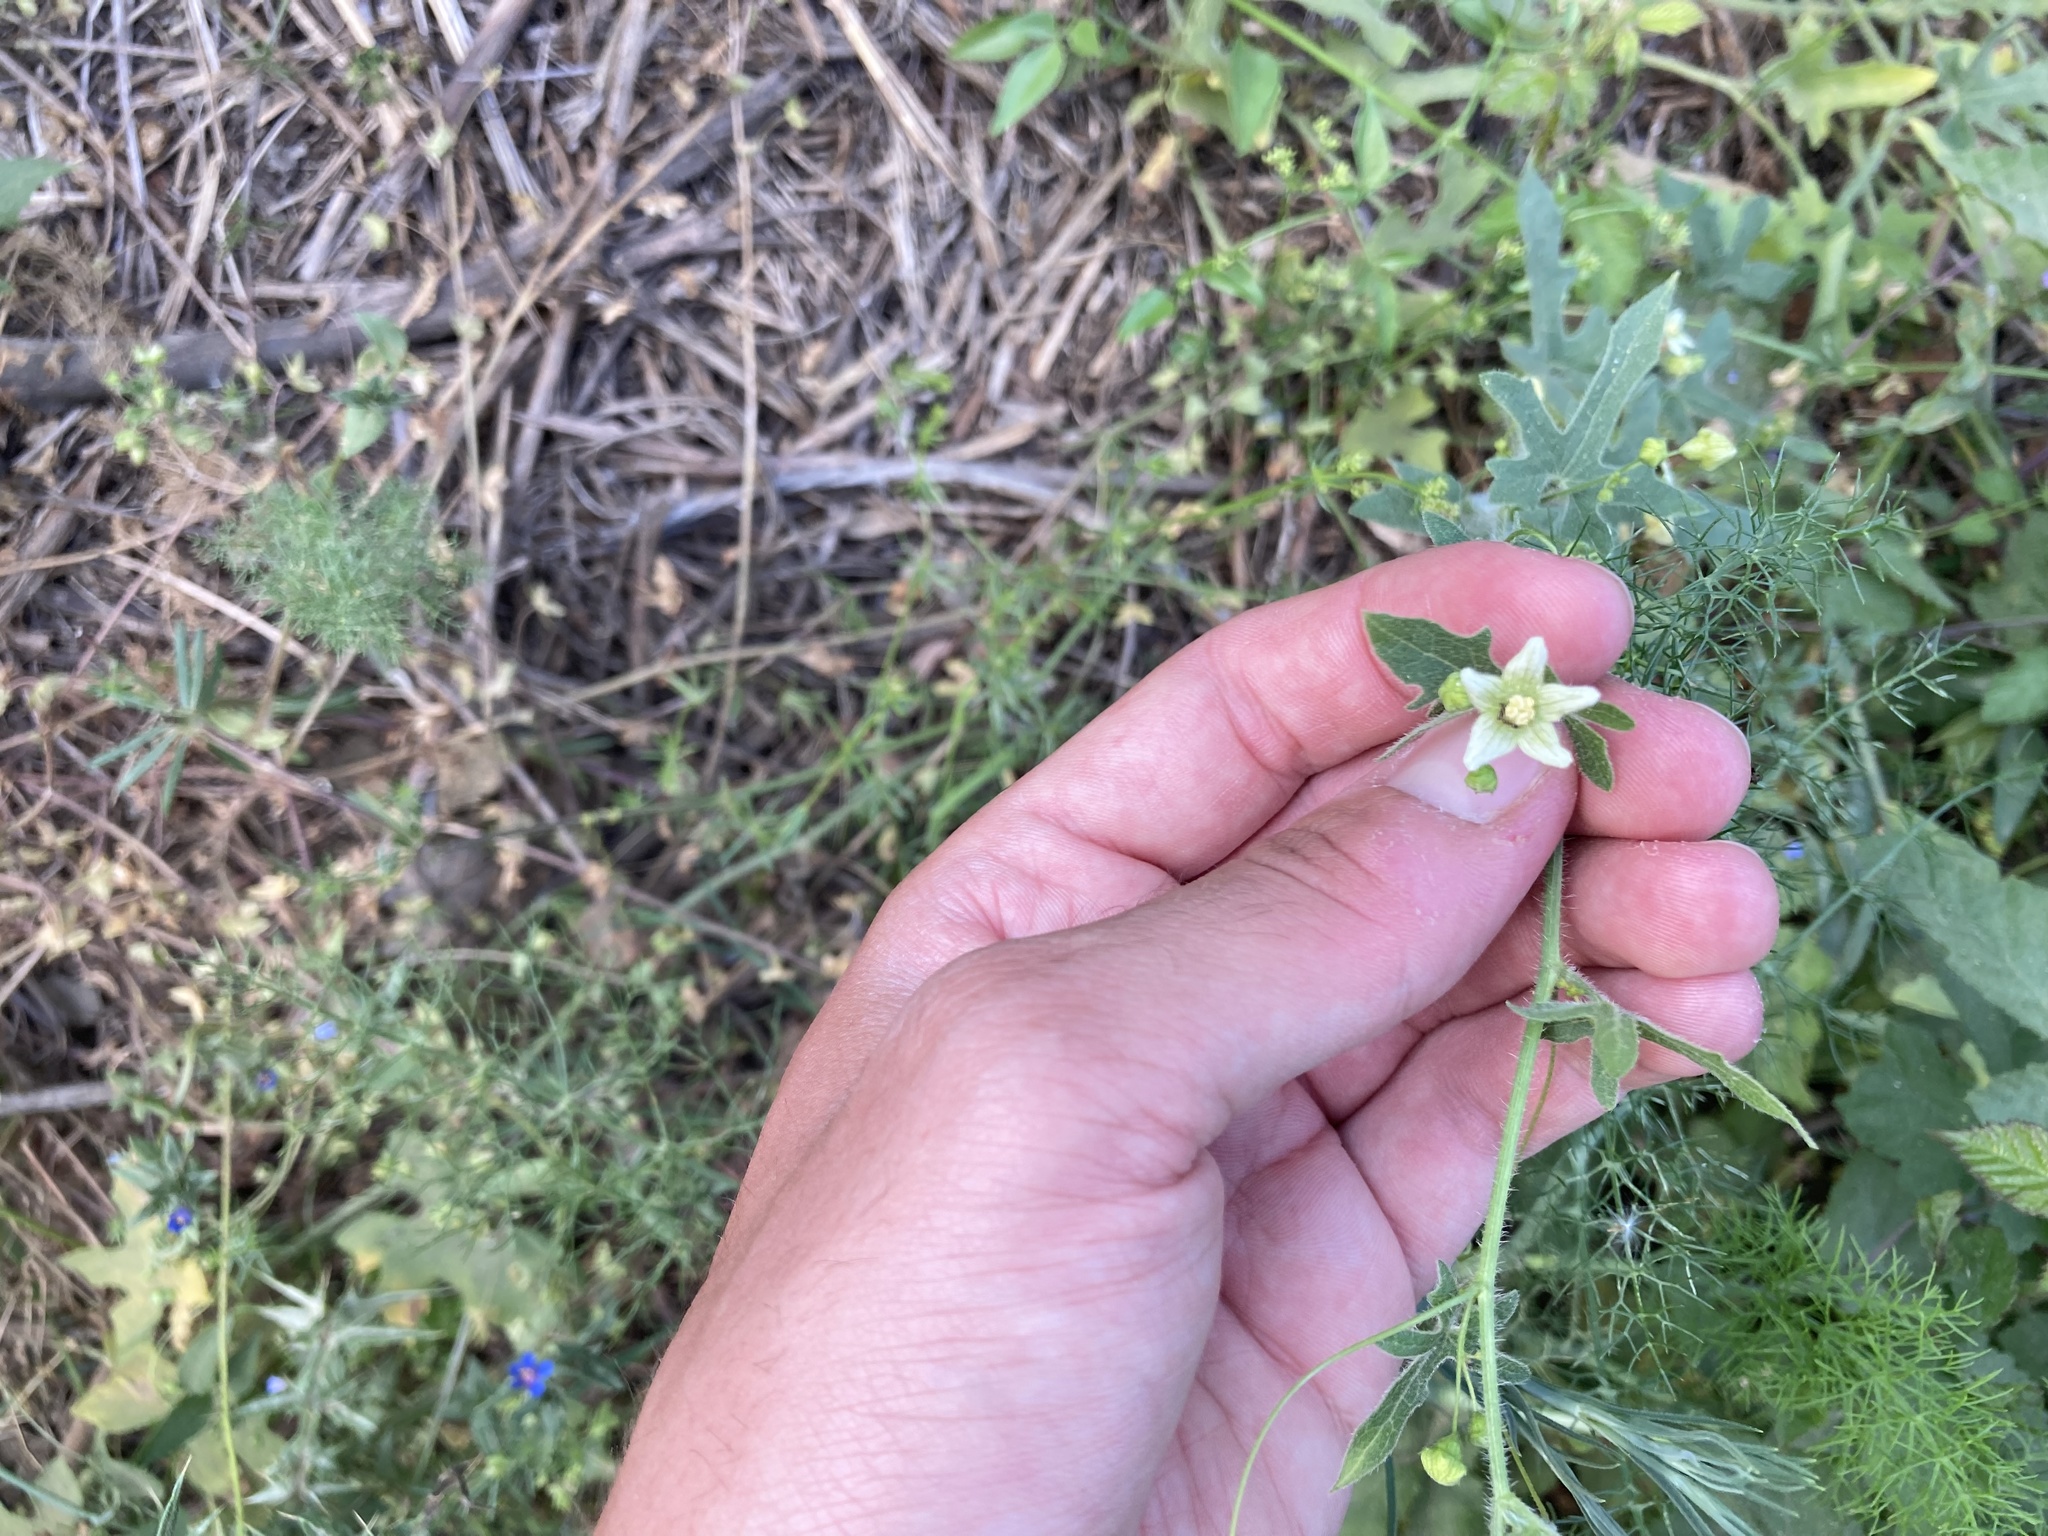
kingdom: Plantae
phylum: Tracheophyta
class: Magnoliopsida
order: Cucurbitales
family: Cucurbitaceae
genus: Bryonia
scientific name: Bryonia cretica
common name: Cretan bryony
